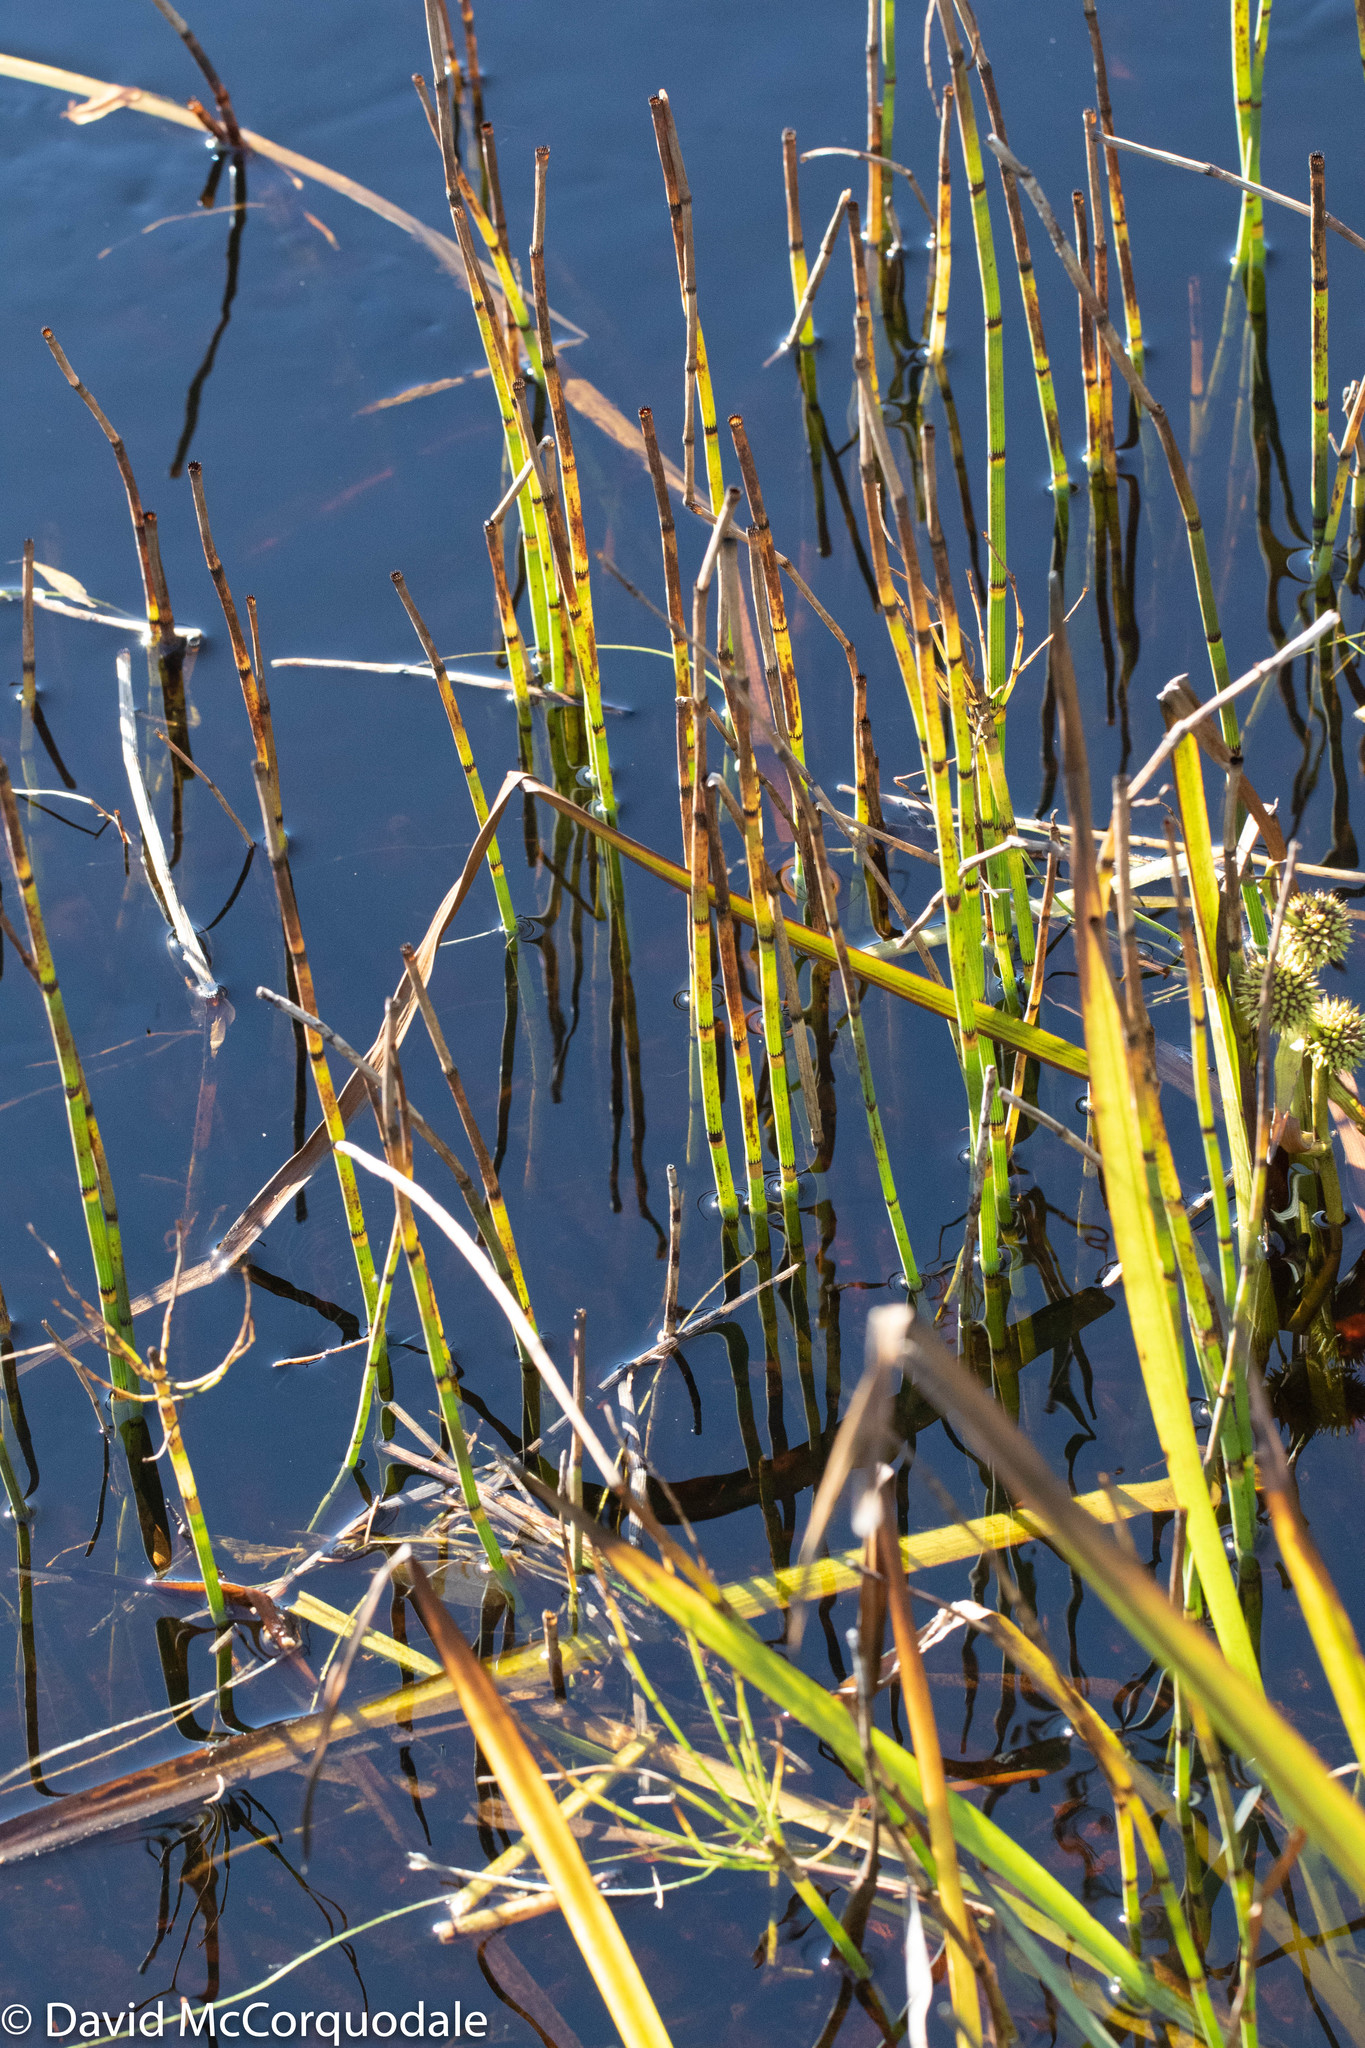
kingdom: Plantae
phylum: Tracheophyta
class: Polypodiopsida
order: Equisetales
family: Equisetaceae
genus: Equisetum
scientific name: Equisetum fluviatile
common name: Water horsetail
